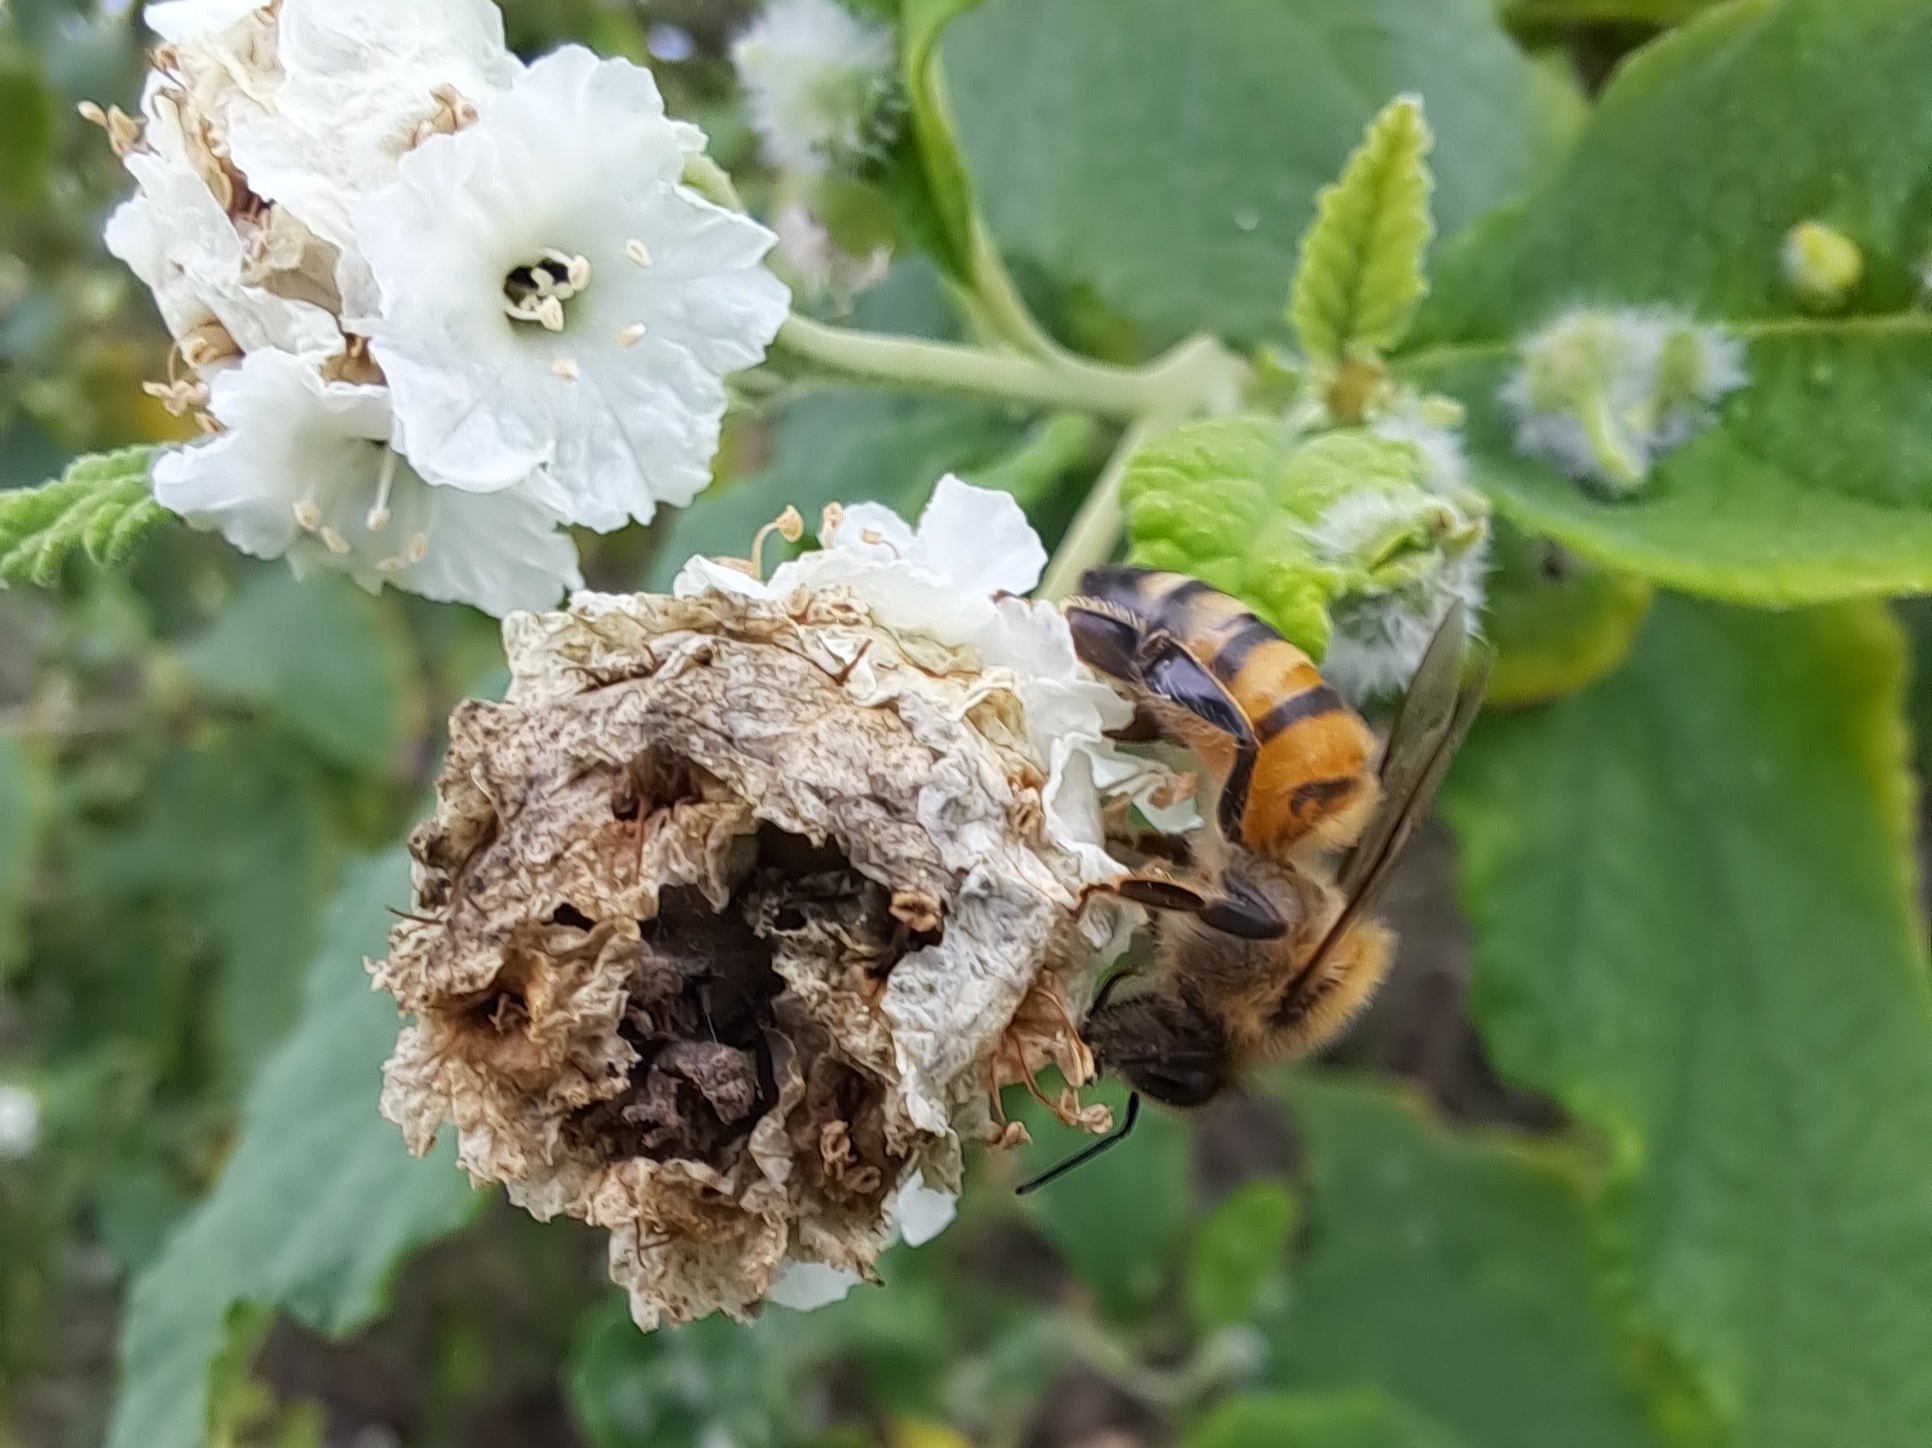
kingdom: Animalia
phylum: Arthropoda
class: Insecta
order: Hymenoptera
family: Apidae
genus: Apis
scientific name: Apis mellifera
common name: Honey bee
